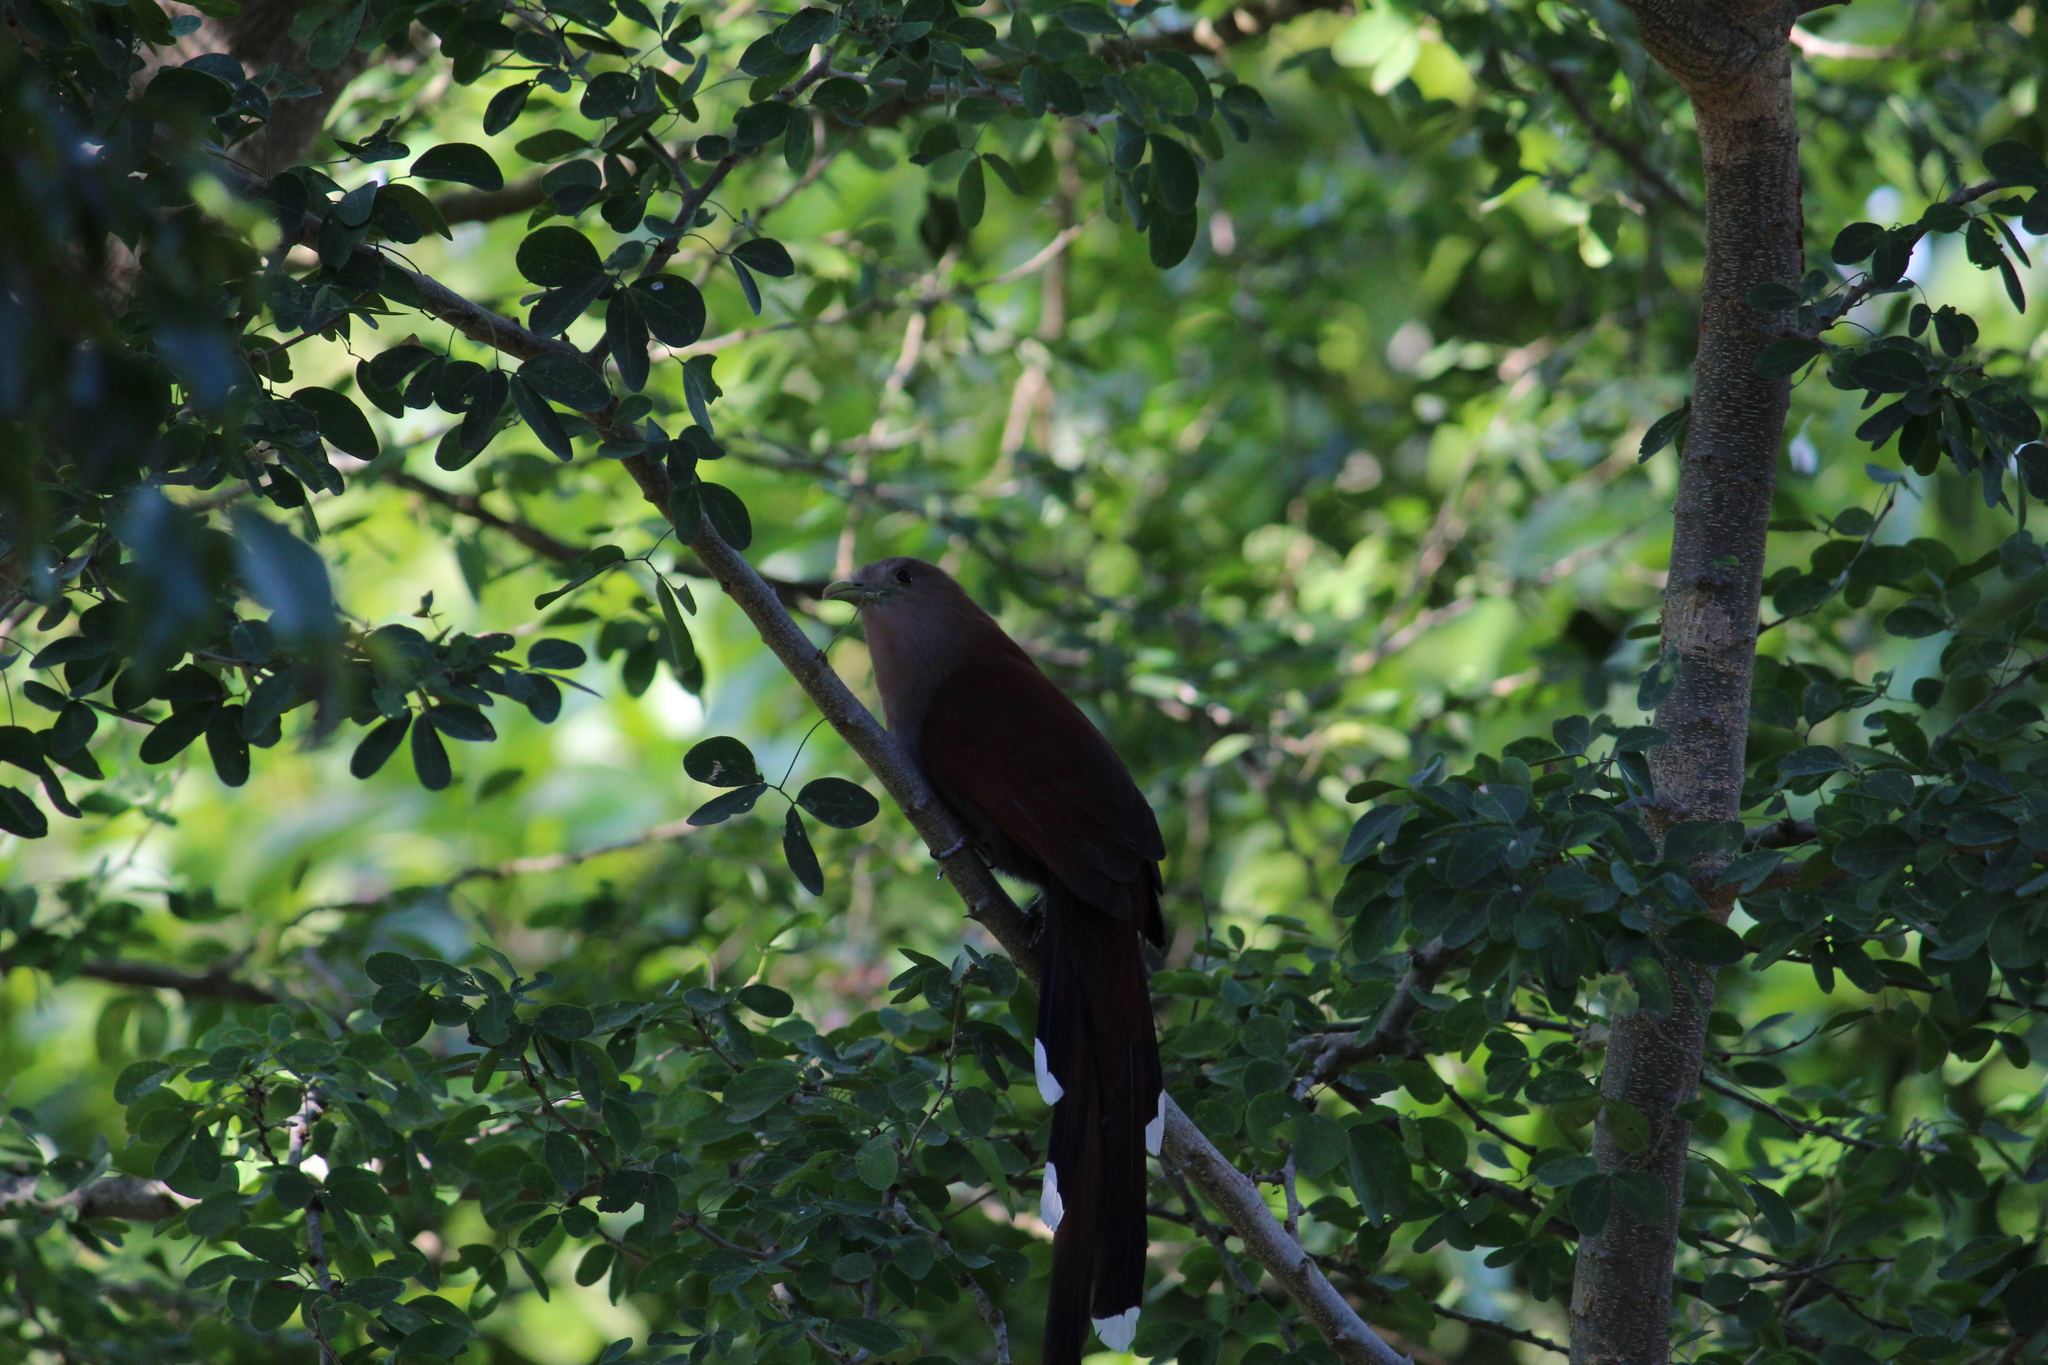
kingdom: Animalia
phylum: Chordata
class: Aves
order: Cuculiformes
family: Cuculidae
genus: Piaya
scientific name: Piaya cayana
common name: Squirrel cuckoo
